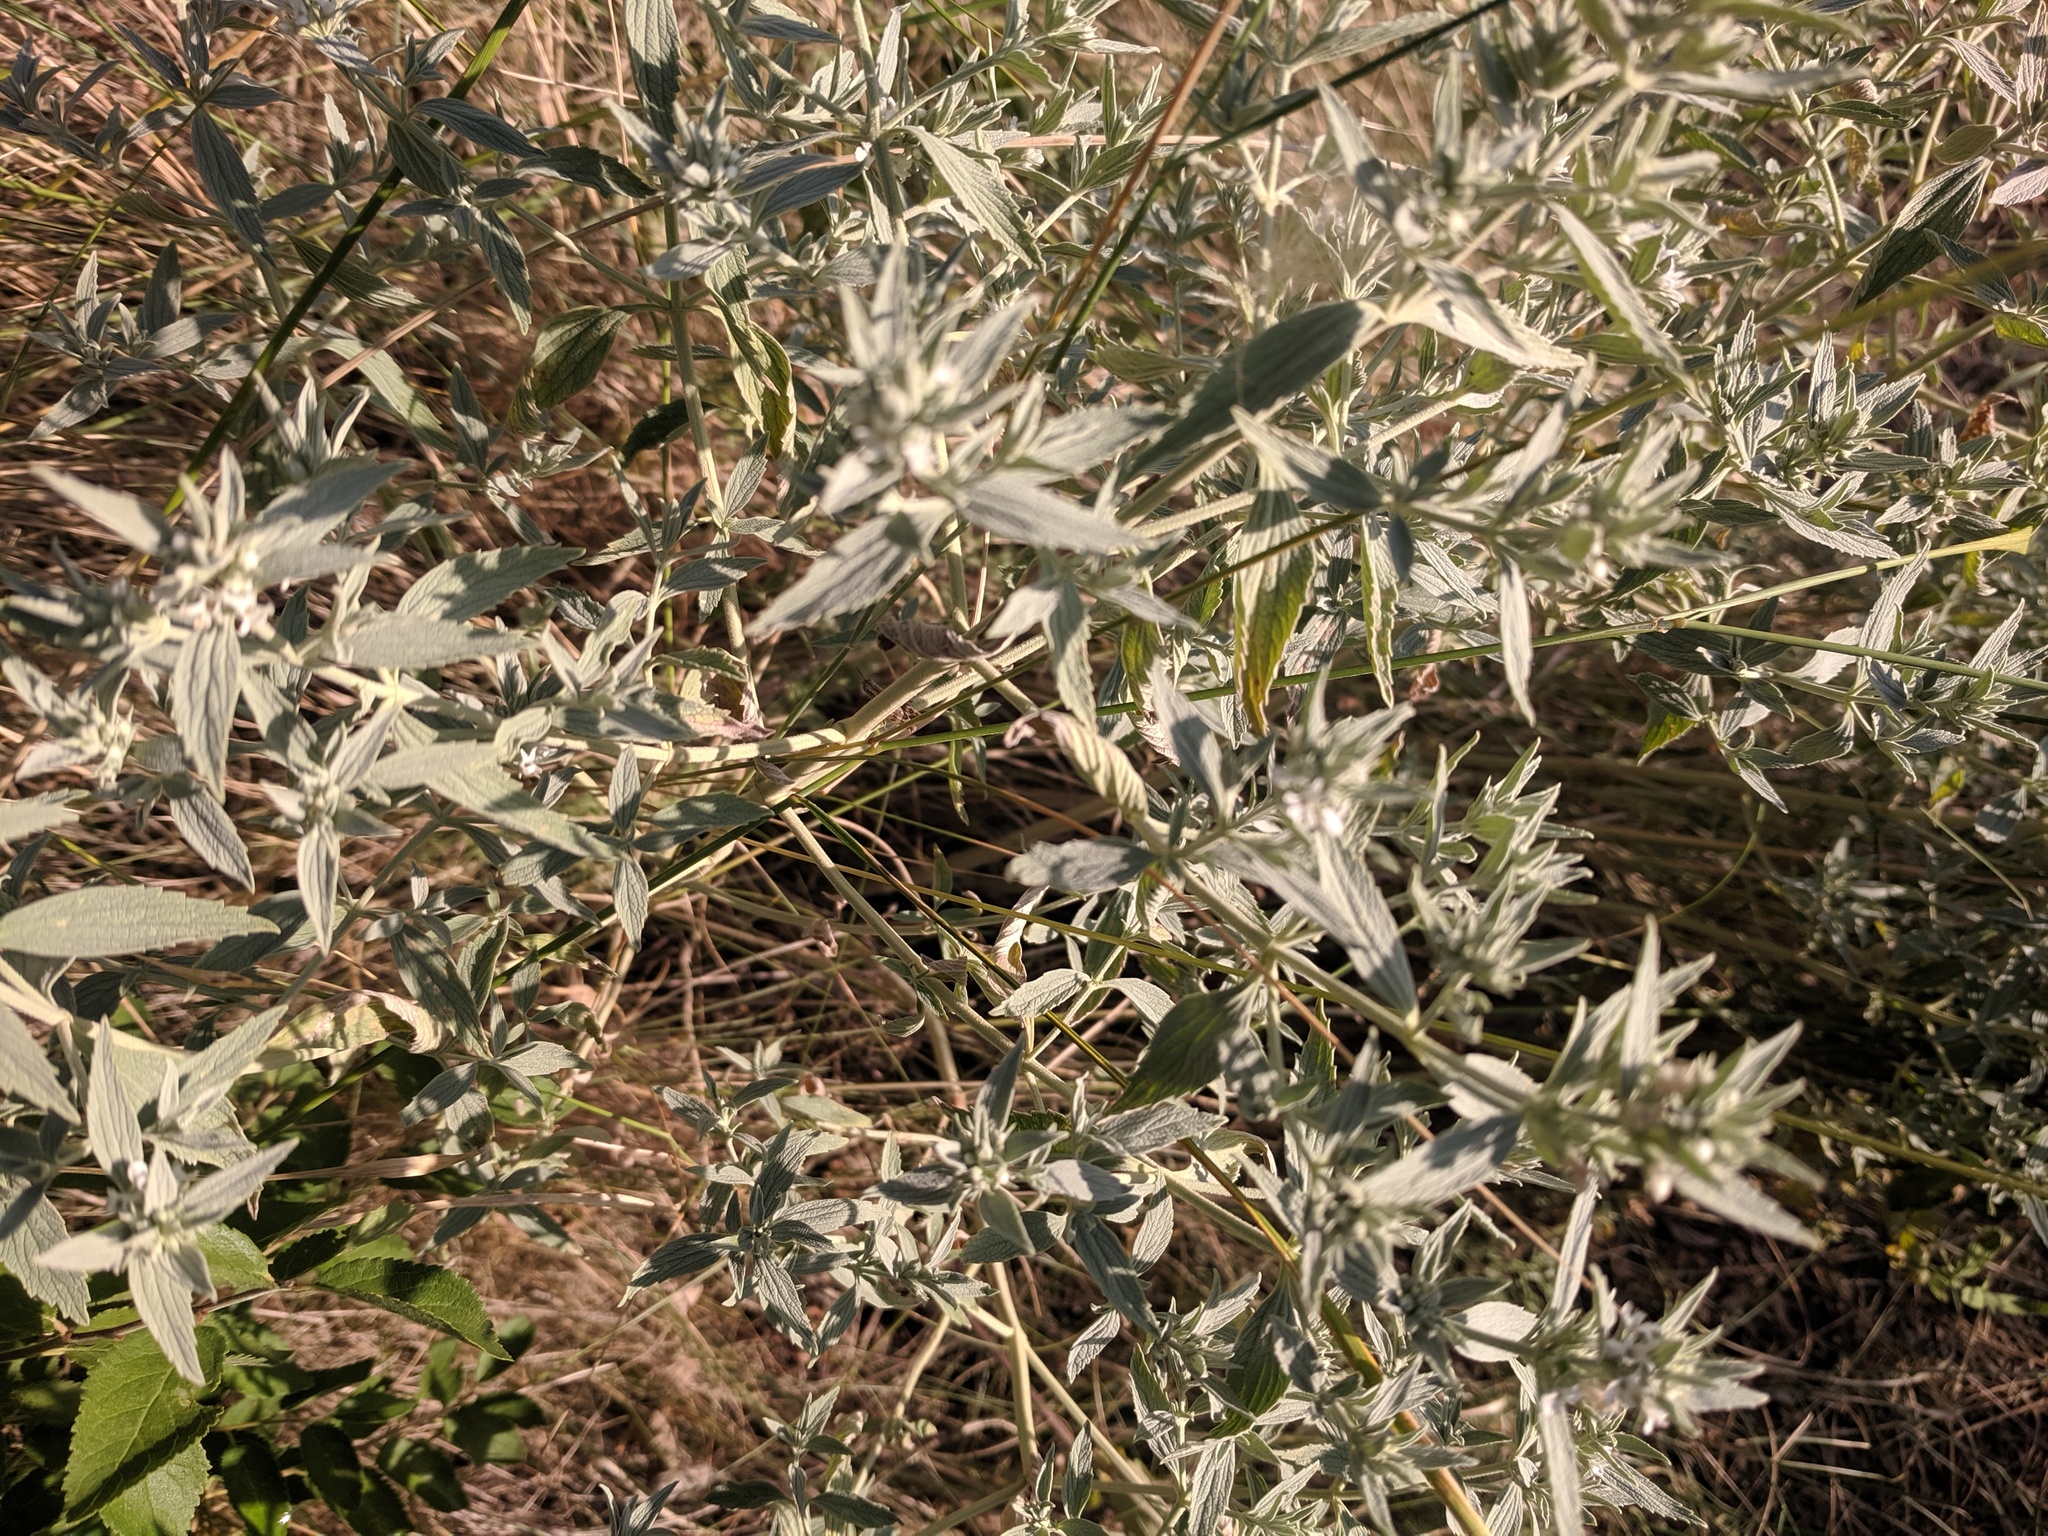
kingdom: Plantae
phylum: Tracheophyta
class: Magnoliopsida
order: Lamiales
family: Lamiaceae
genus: Marrubium
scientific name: Marrubium peregrinum
